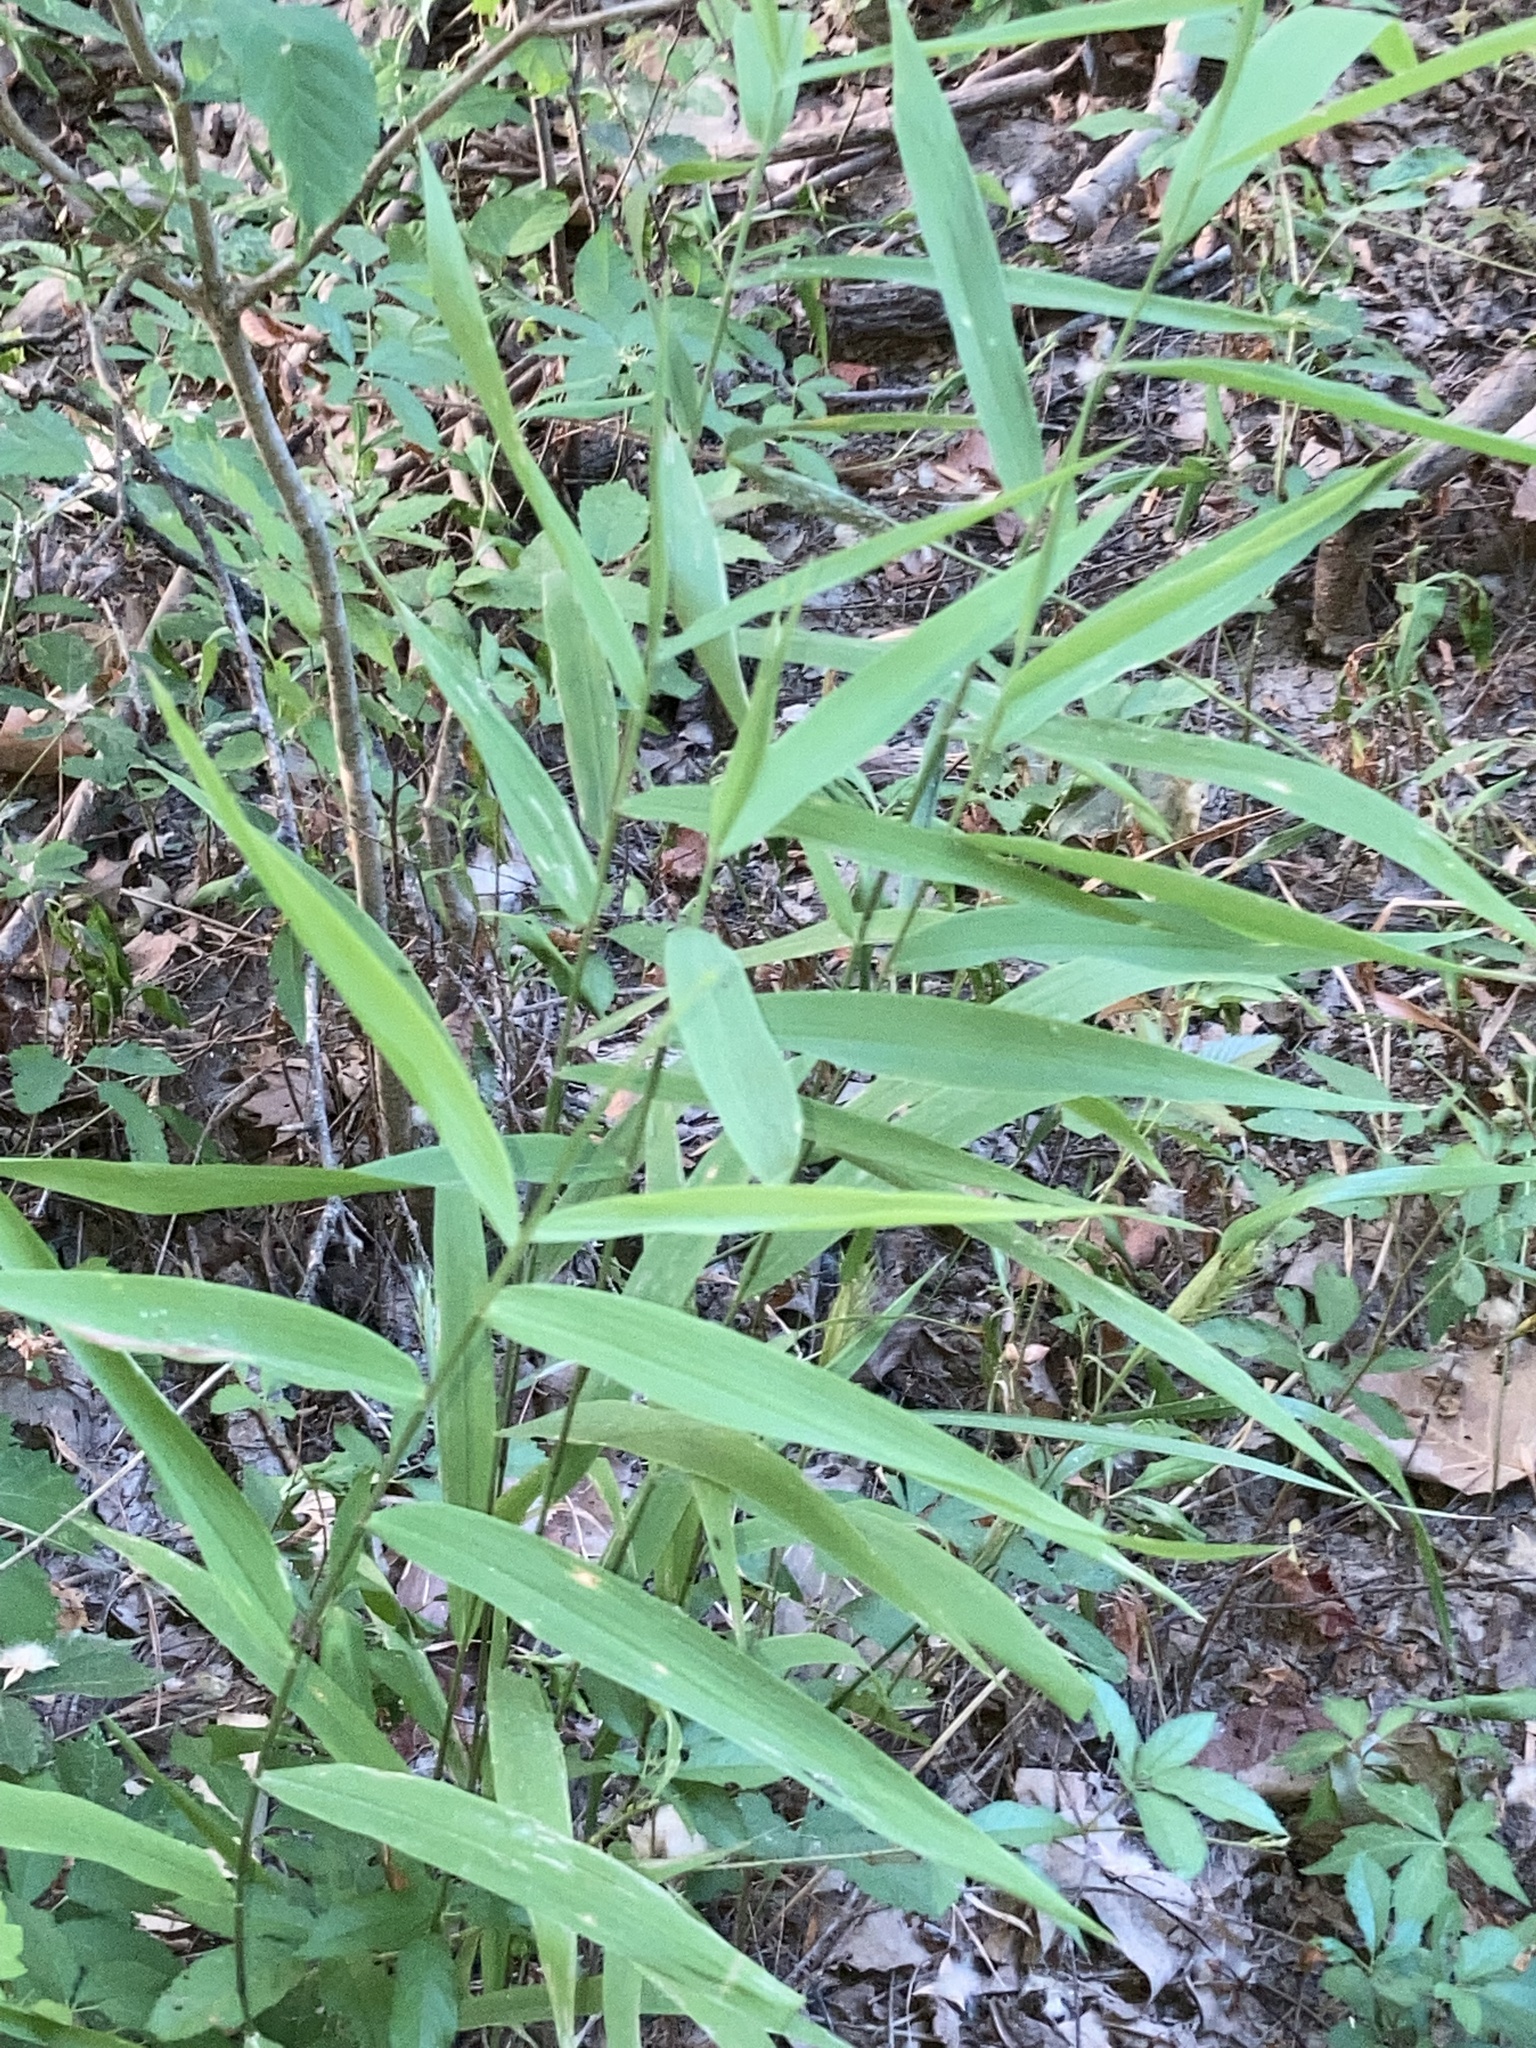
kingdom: Plantae
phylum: Tracheophyta
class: Liliopsida
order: Poales
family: Poaceae
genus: Chasmanthium
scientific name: Chasmanthium latifolium
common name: Broad-leaved chasmanthium
